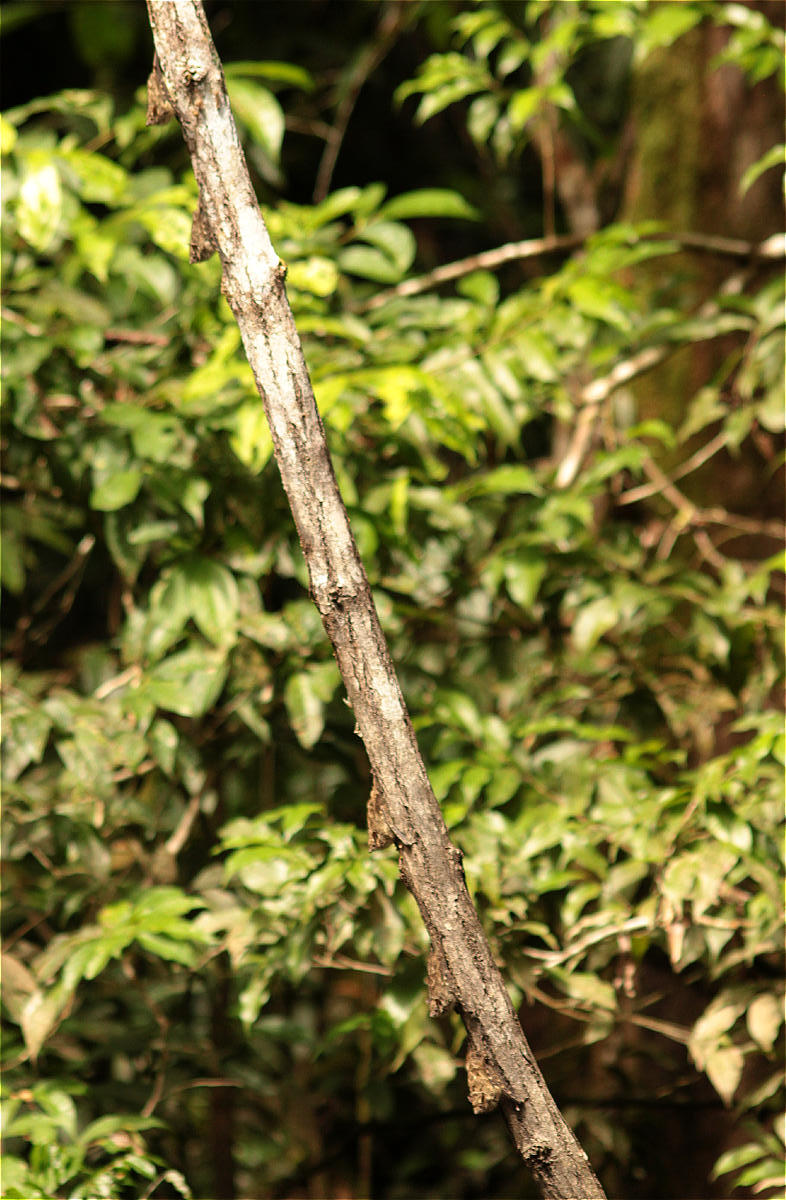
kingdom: Animalia
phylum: Chordata
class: Mammalia
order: Chiroptera
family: Emballonuridae
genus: Rhynchonycteris
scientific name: Rhynchonycteris naso
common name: Proboscis bat
